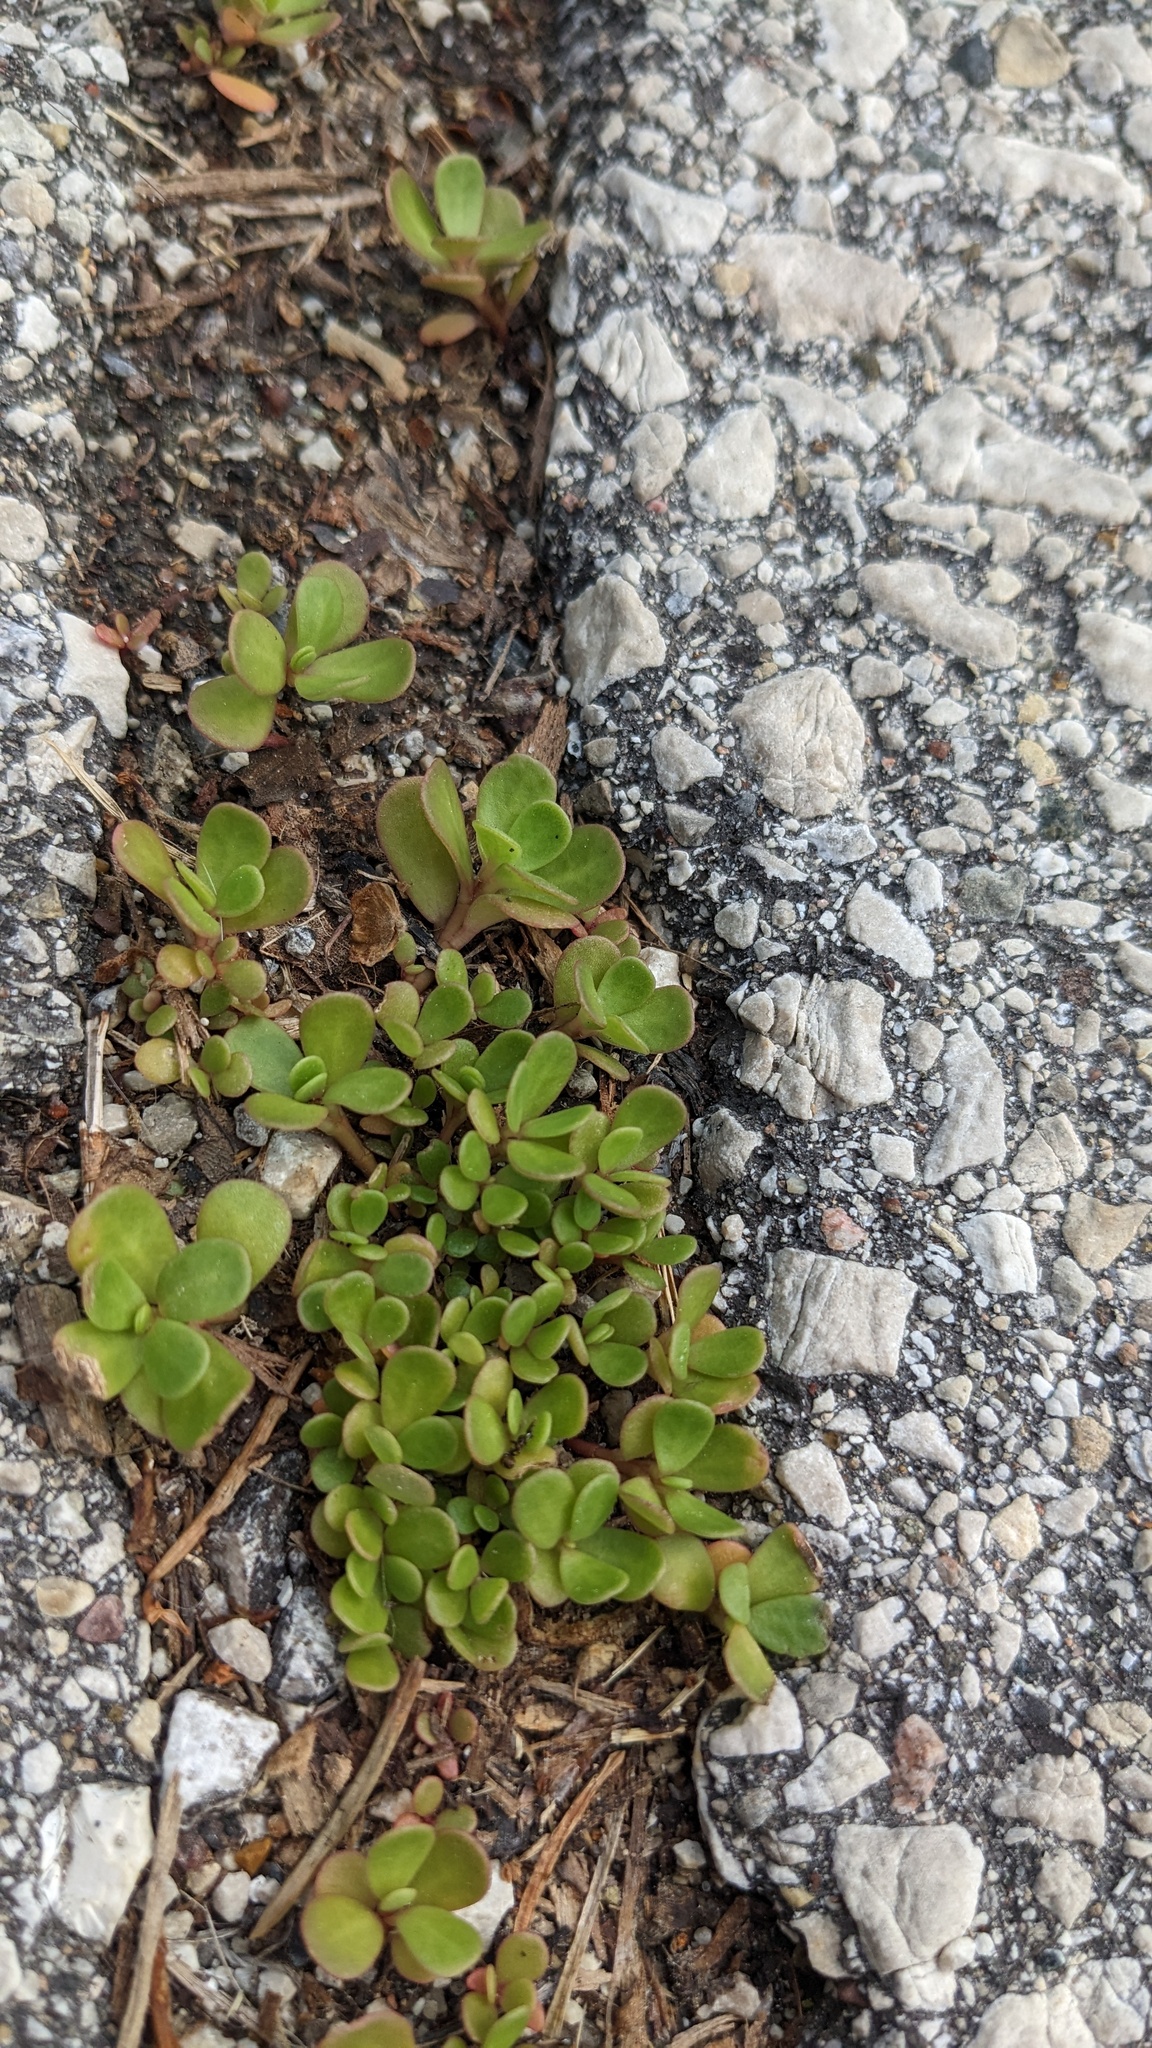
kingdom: Plantae
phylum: Tracheophyta
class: Magnoliopsida
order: Caryophyllales
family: Portulacaceae
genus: Portulaca
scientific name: Portulaca oleracea
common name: Common purslane
